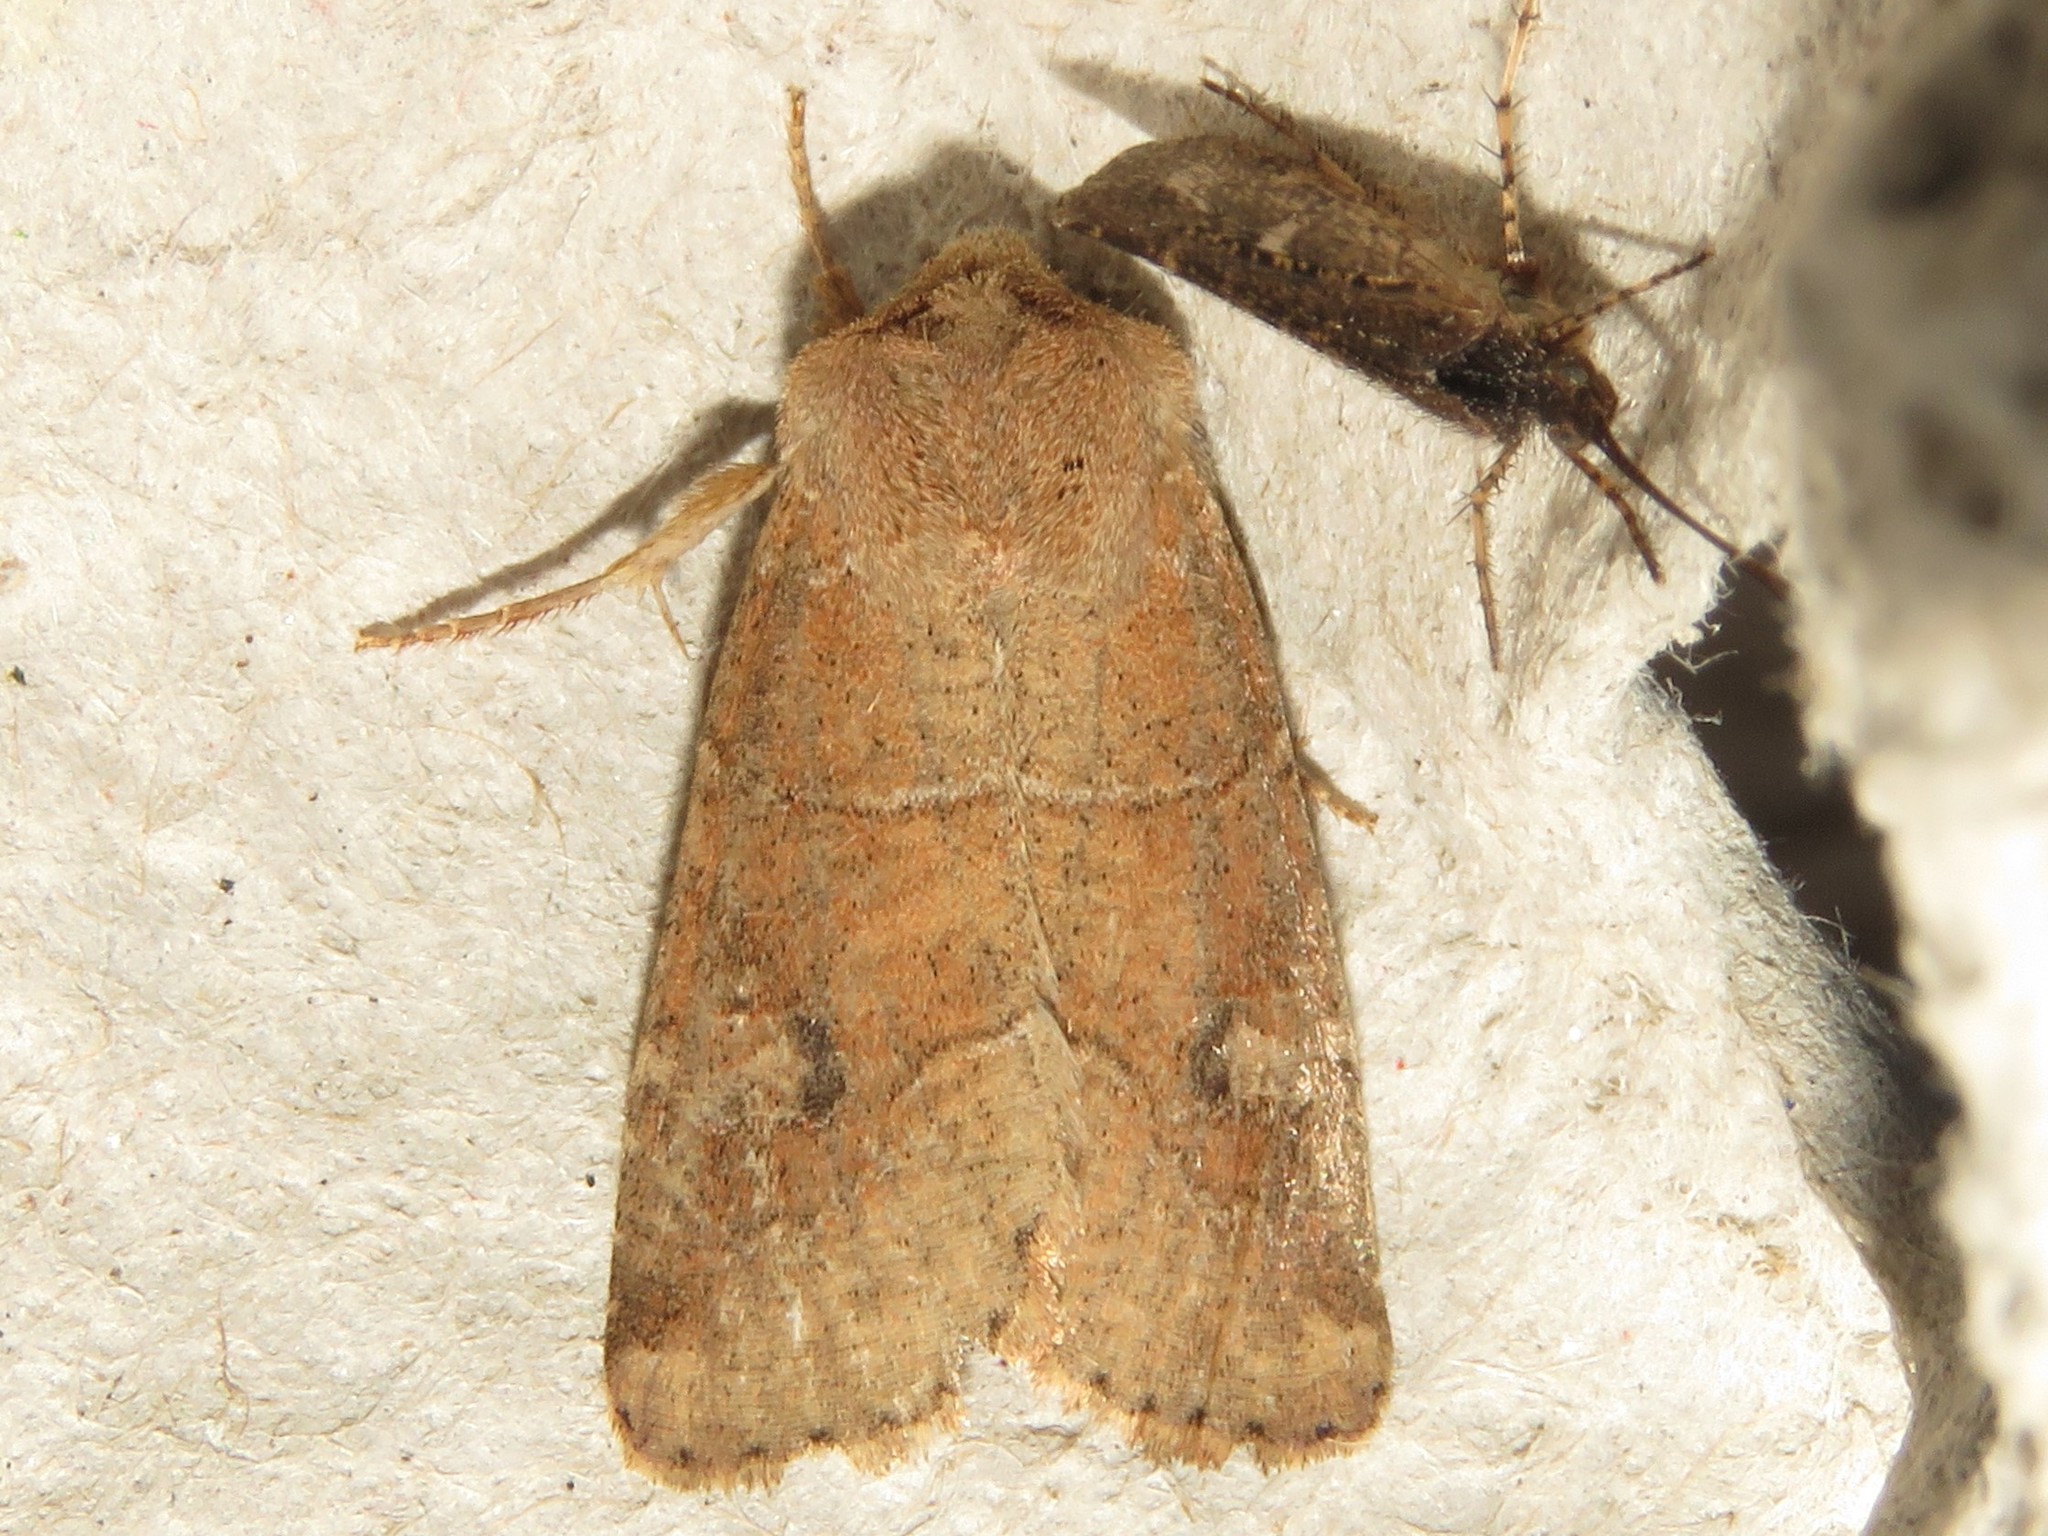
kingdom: Animalia
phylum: Arthropoda
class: Insecta
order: Lepidoptera
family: Noctuidae
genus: Crocigrapha
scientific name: Crocigrapha normani
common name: Norman's quaker
